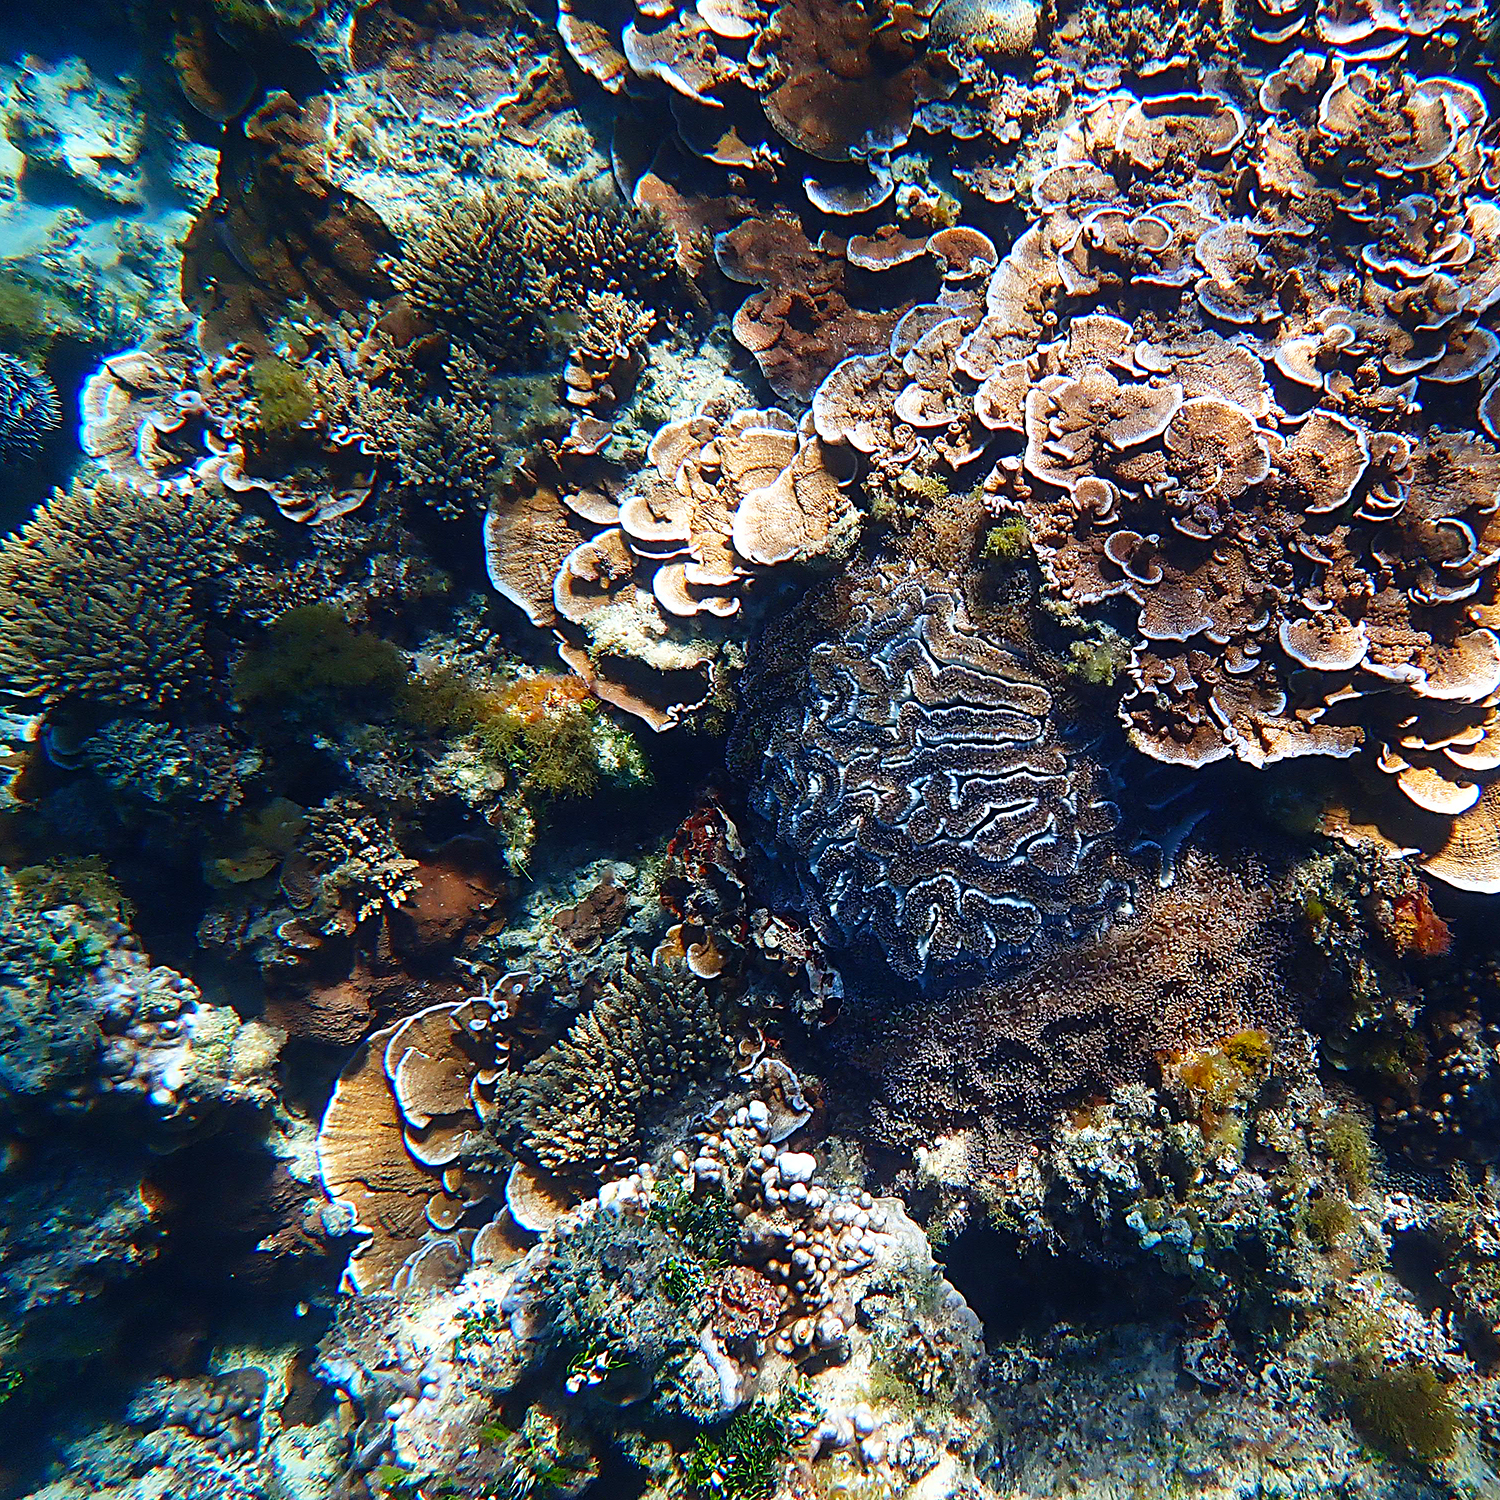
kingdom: Animalia
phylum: Cnidaria
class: Anthozoa
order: Scleractinia
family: Euphylliidae
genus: Fimbriaphyllia
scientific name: Fimbriaphyllia ancora
